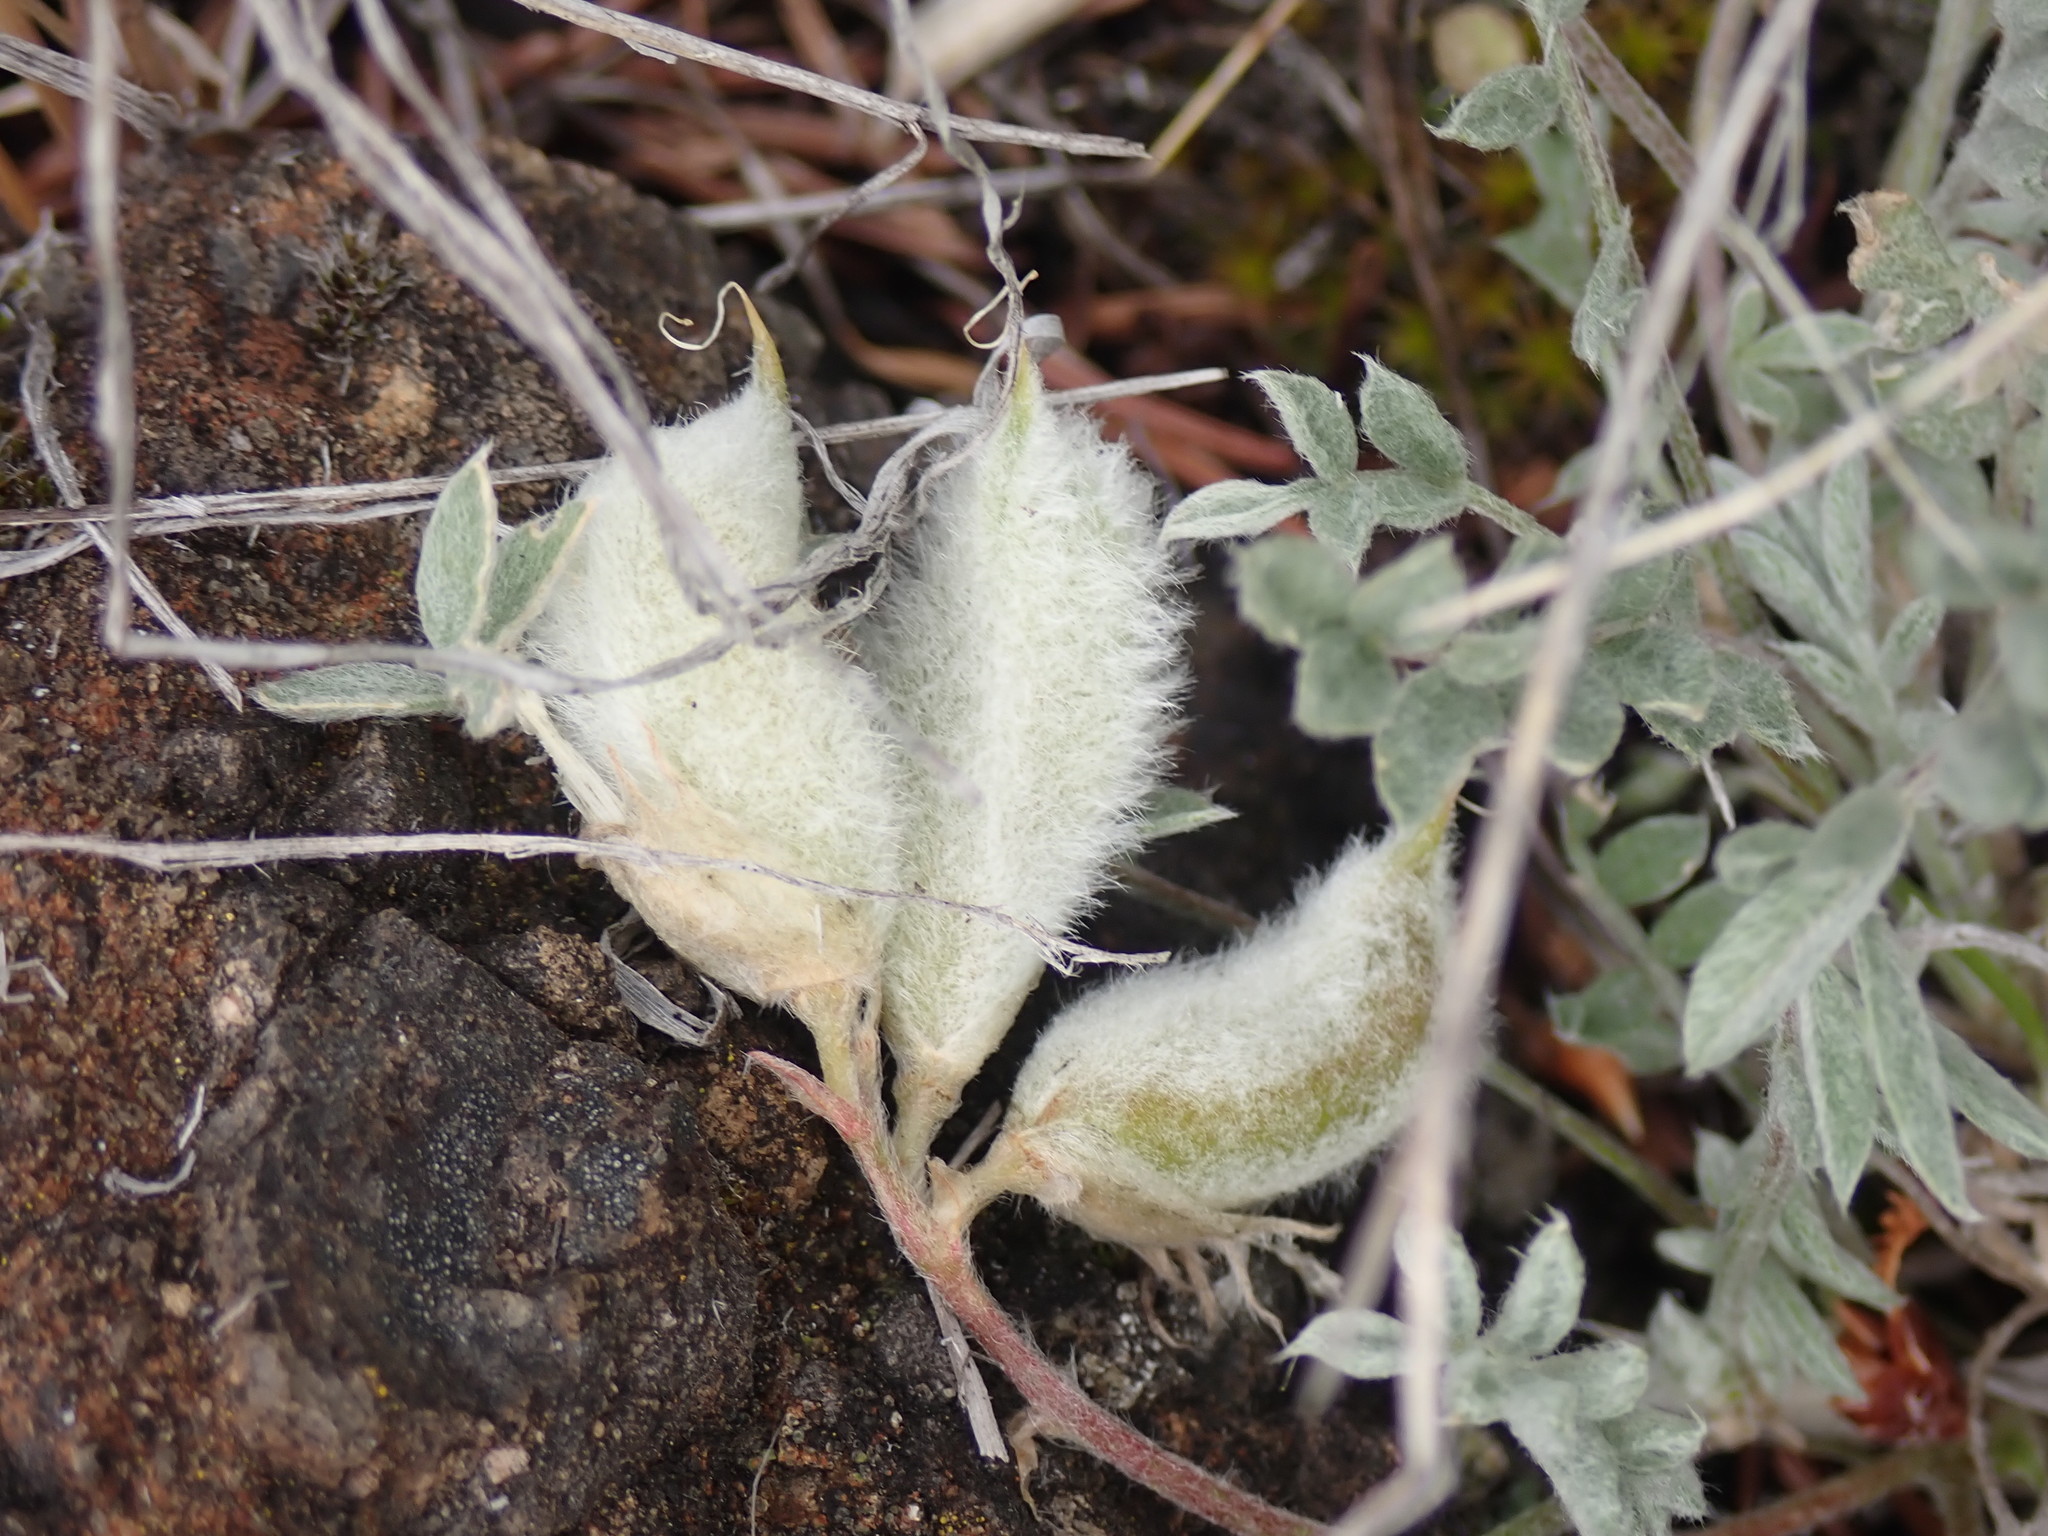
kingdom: Plantae
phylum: Tracheophyta
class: Magnoliopsida
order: Fabales
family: Fabaceae
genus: Astragalus
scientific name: Astragalus purshii
